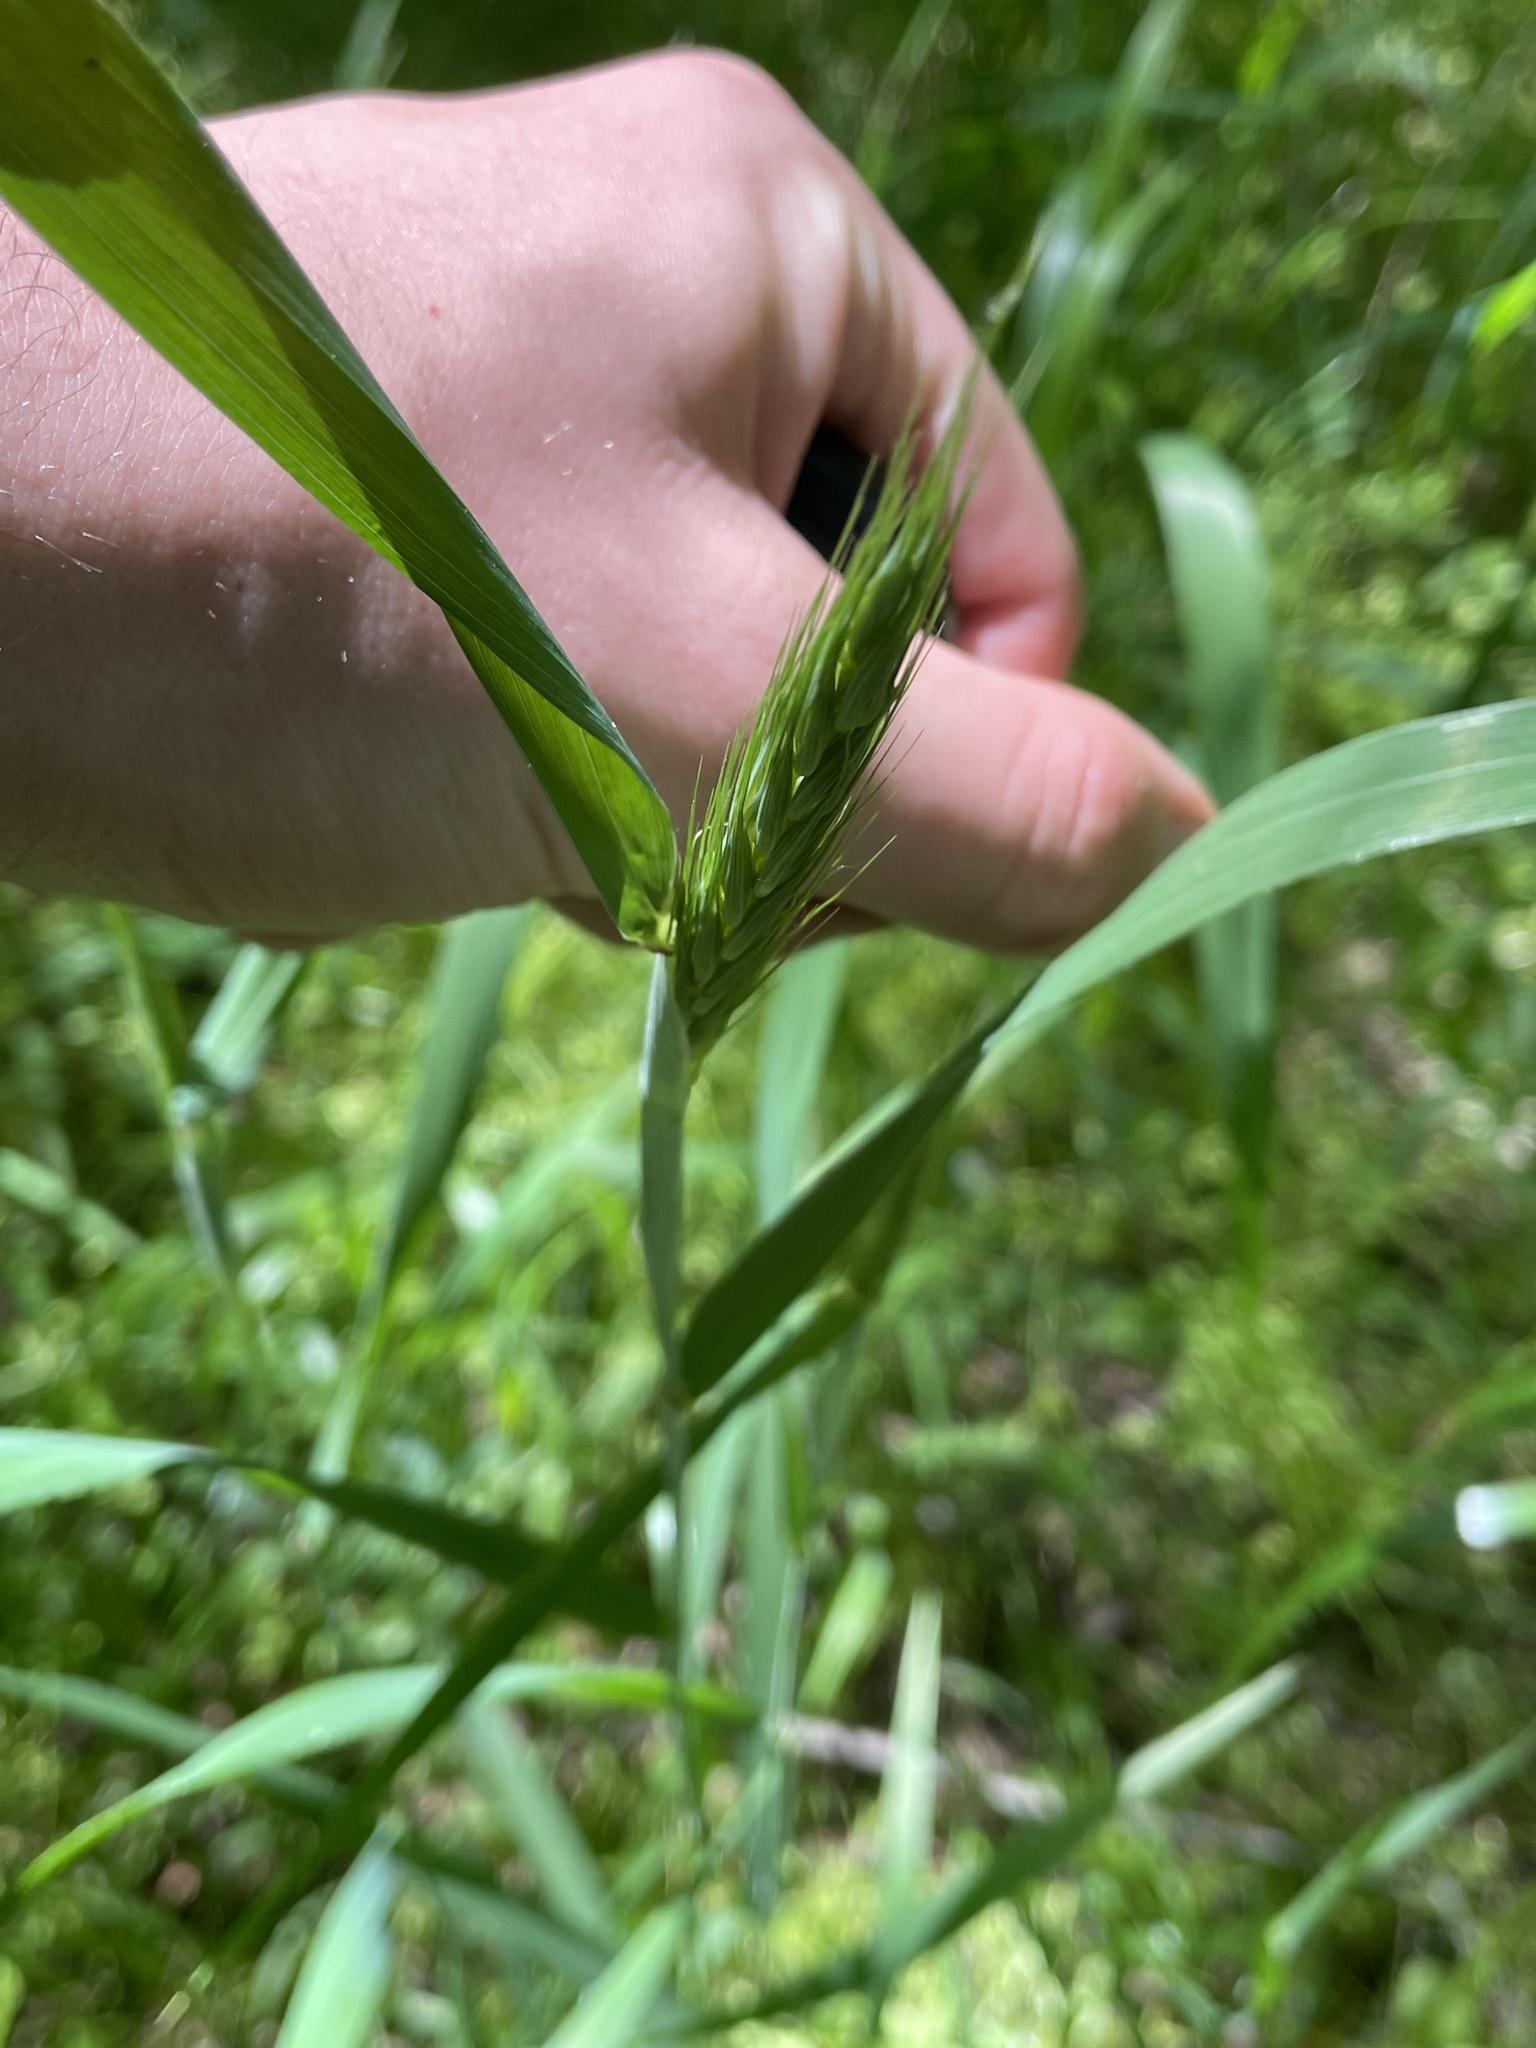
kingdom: Plantae
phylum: Tracheophyta
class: Liliopsida
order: Poales
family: Poaceae
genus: Elymus
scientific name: Elymus virginicus
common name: Common eastern wildrye
